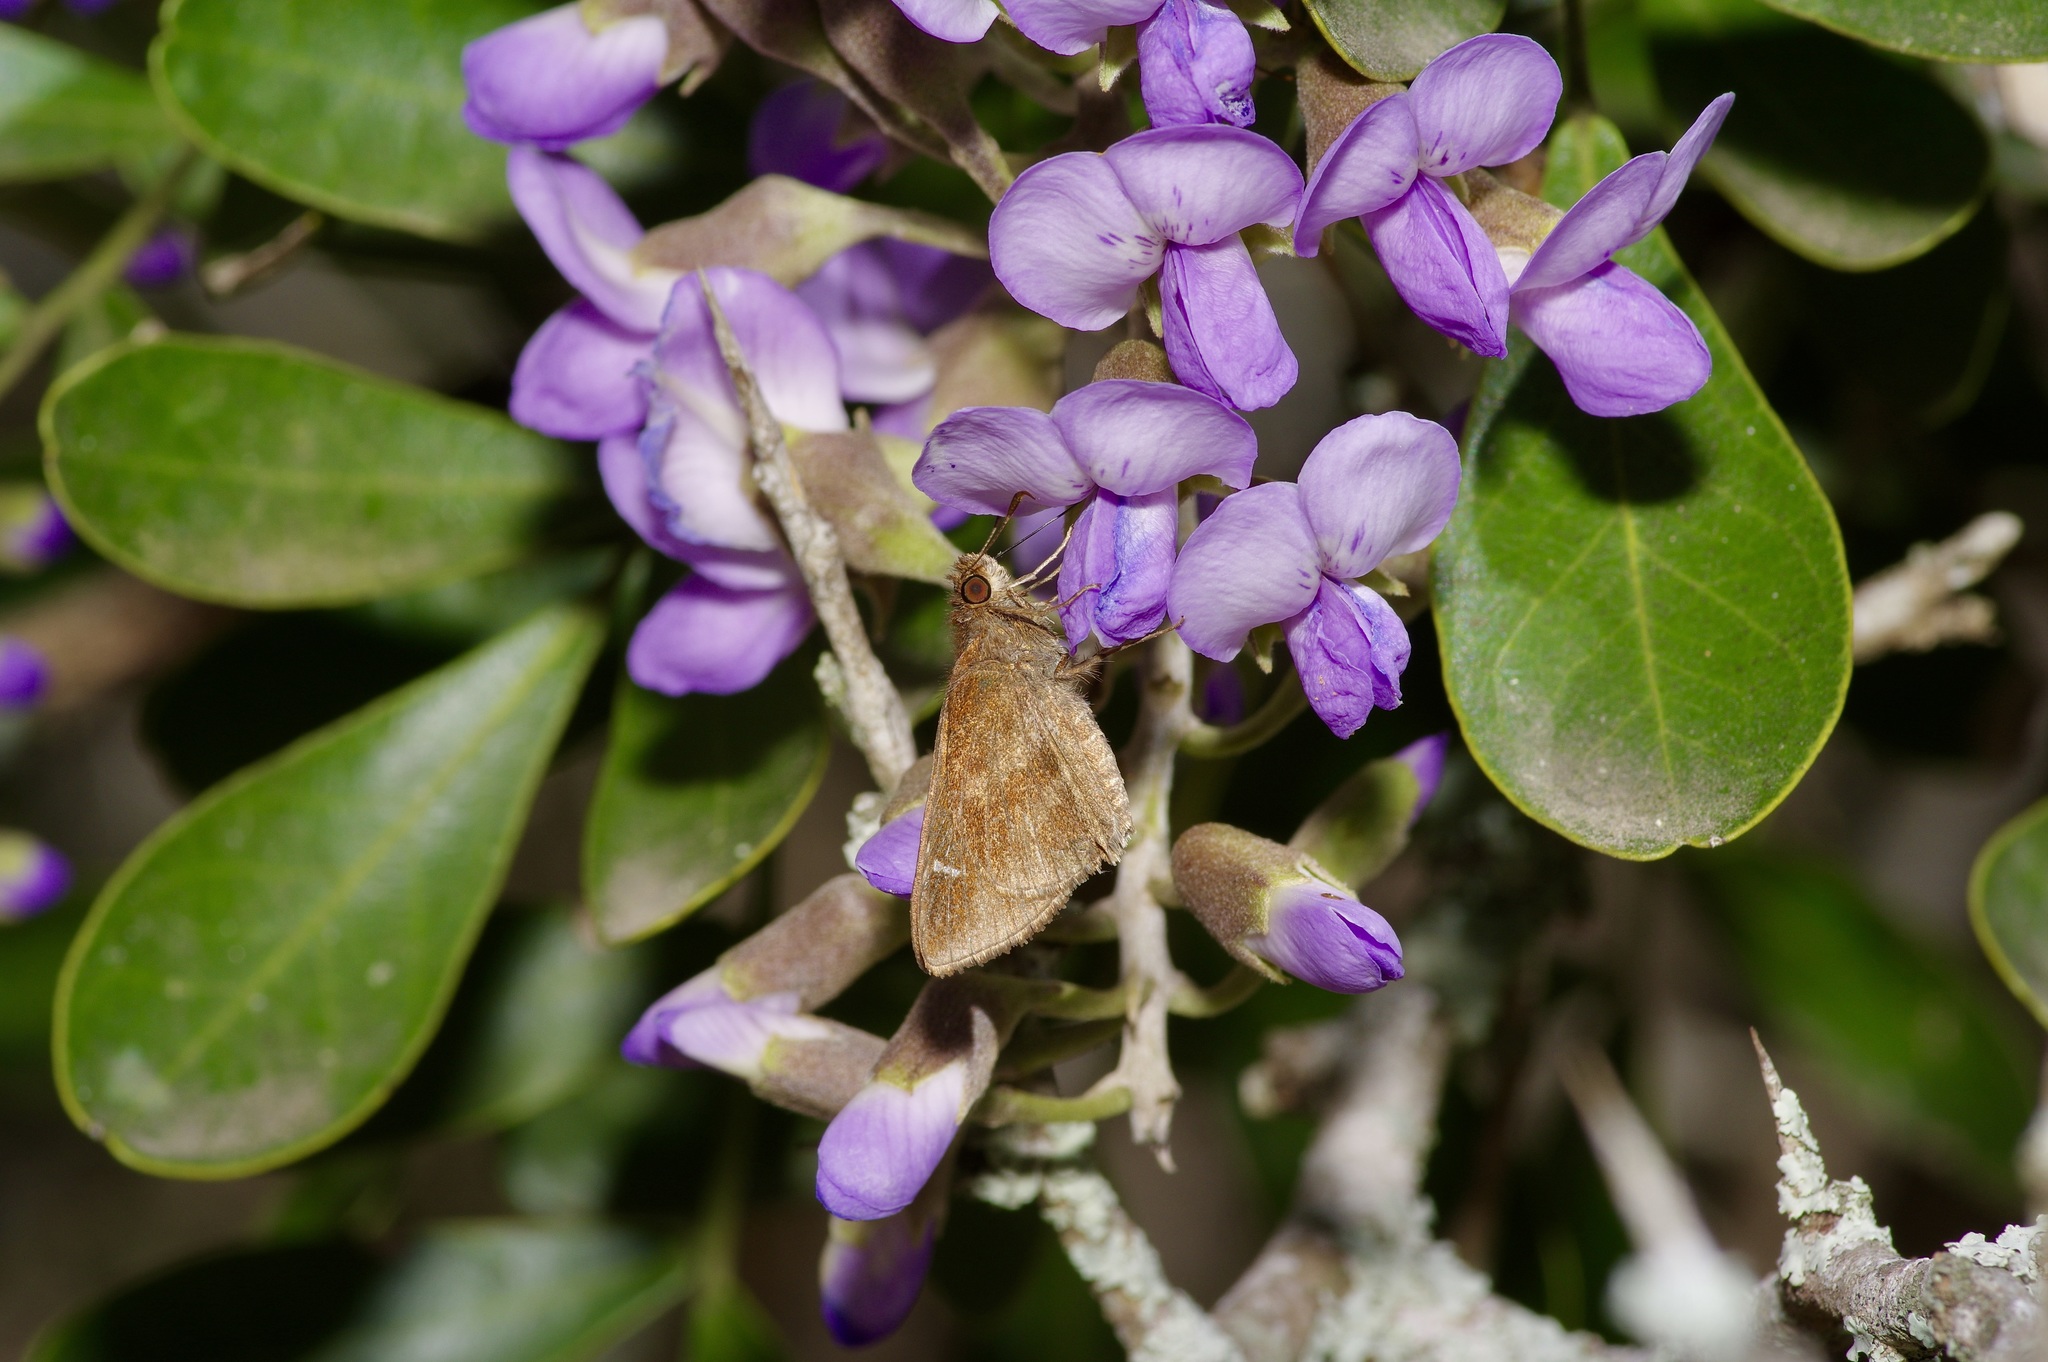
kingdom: Animalia
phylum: Arthropoda
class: Insecta
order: Lepidoptera
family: Hesperiidae
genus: Lerema
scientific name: Lerema accius
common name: Clouded skipper
